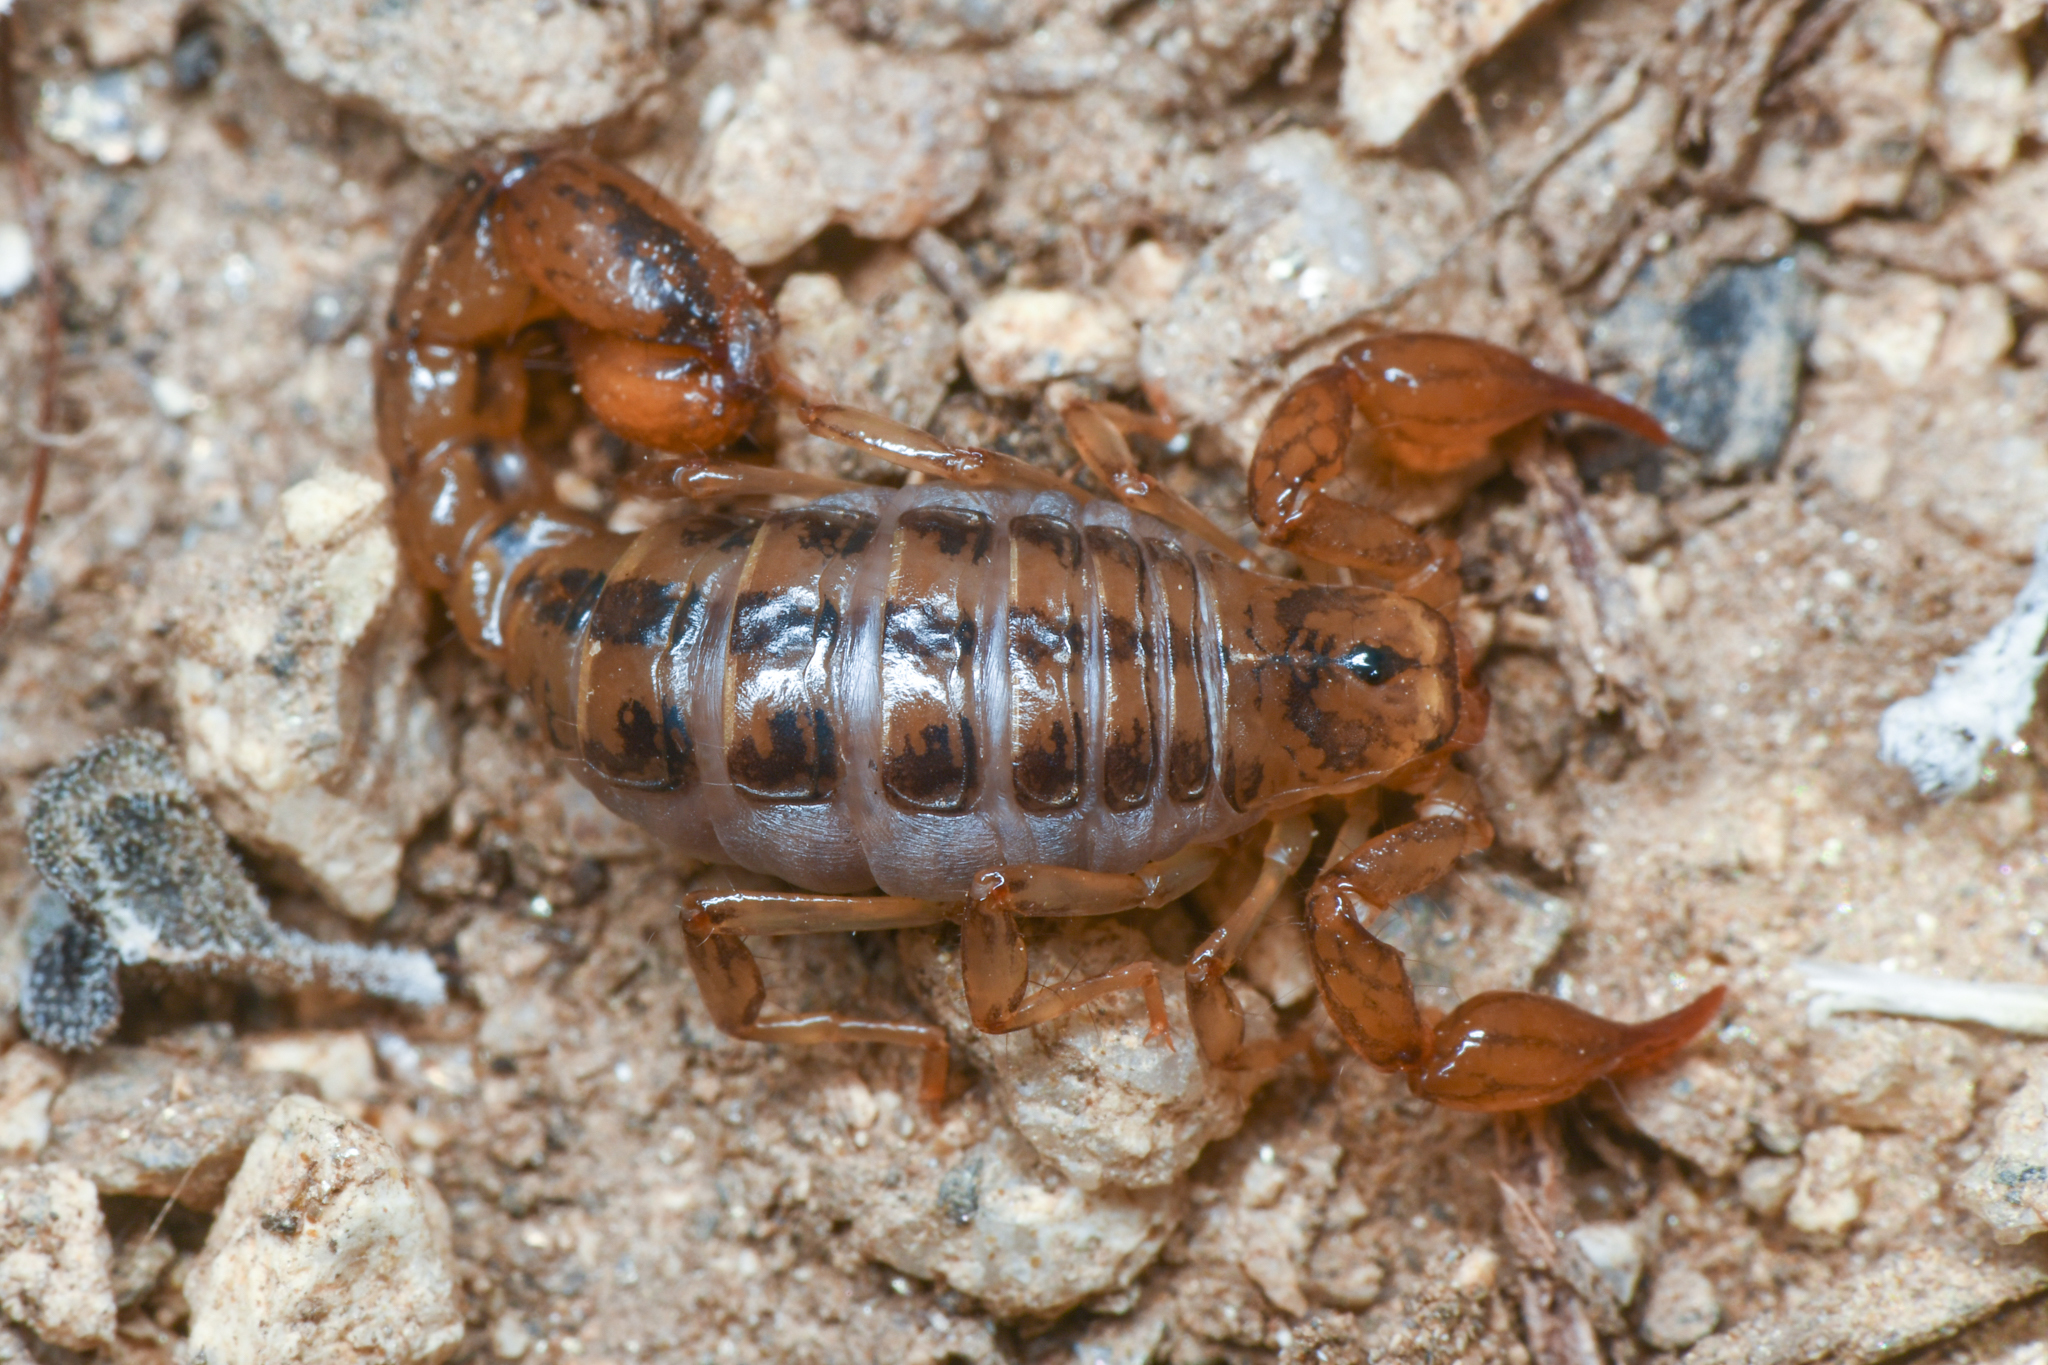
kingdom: Animalia
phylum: Arthropoda
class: Arachnida
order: Scorpiones
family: Superstitioniidae
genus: Superstitionia
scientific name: Superstitionia donensis
